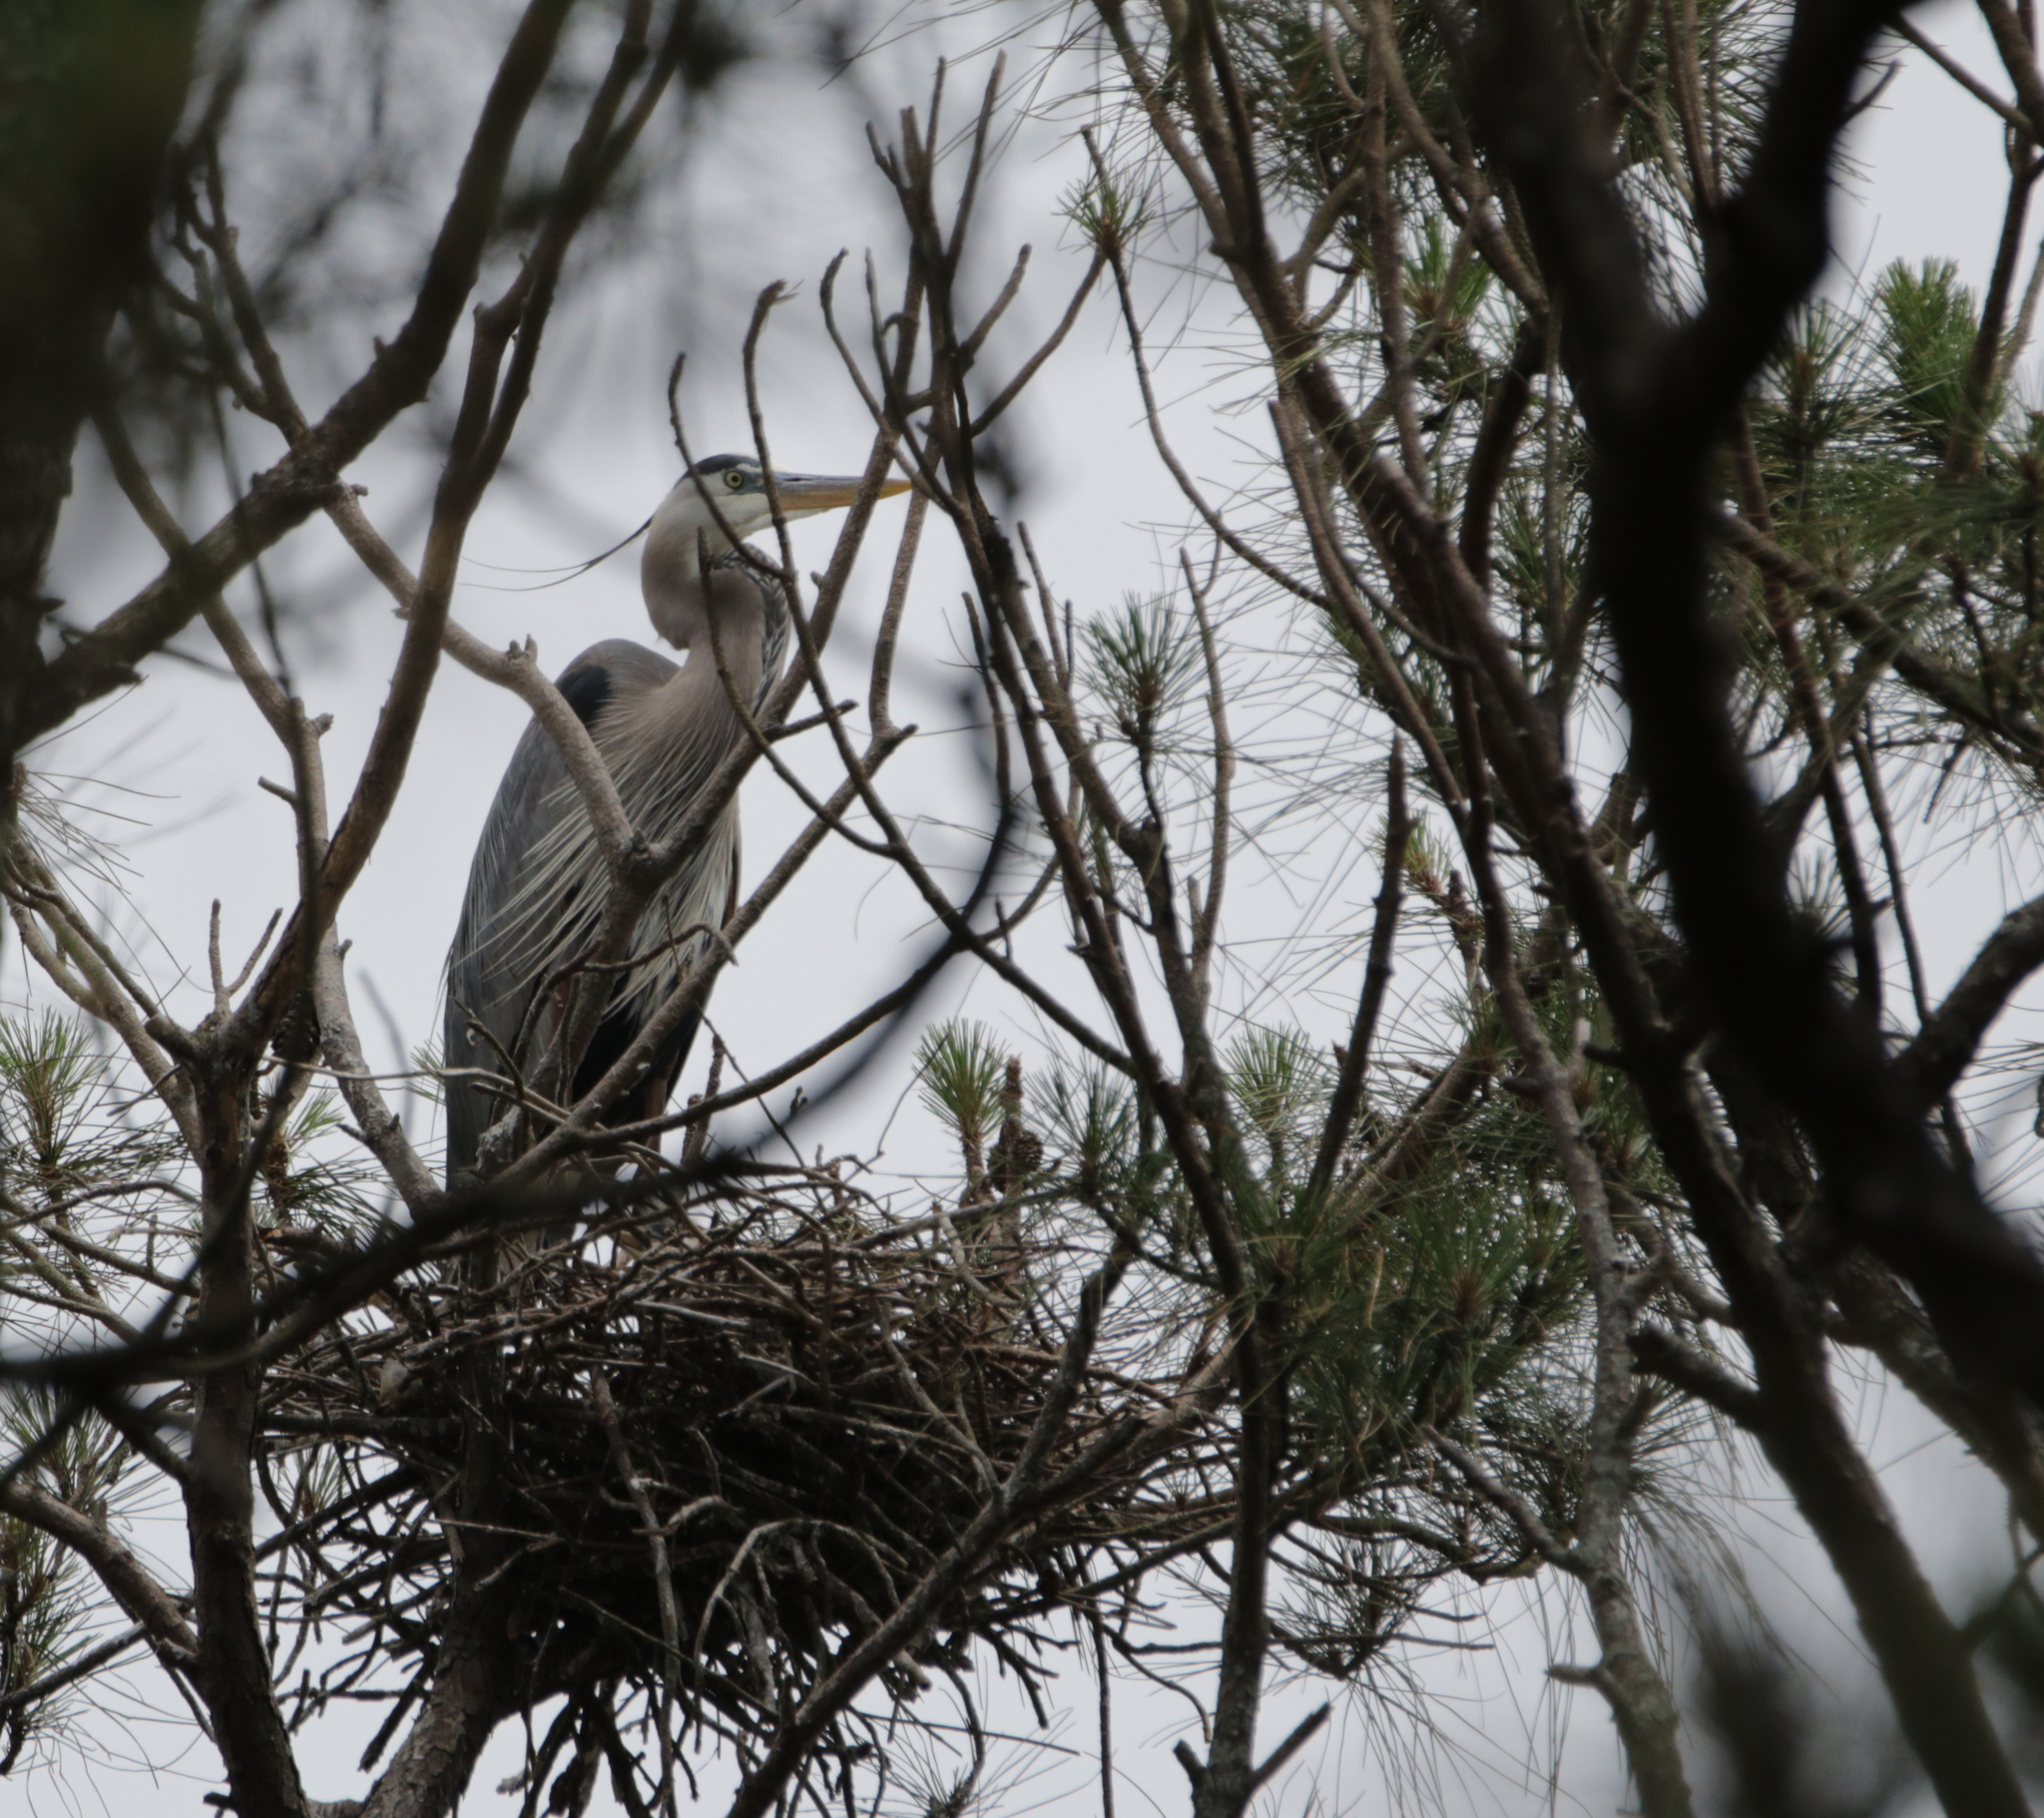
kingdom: Animalia
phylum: Chordata
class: Aves
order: Pelecaniformes
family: Ardeidae
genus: Ardea
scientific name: Ardea herodias
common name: Great blue heron
